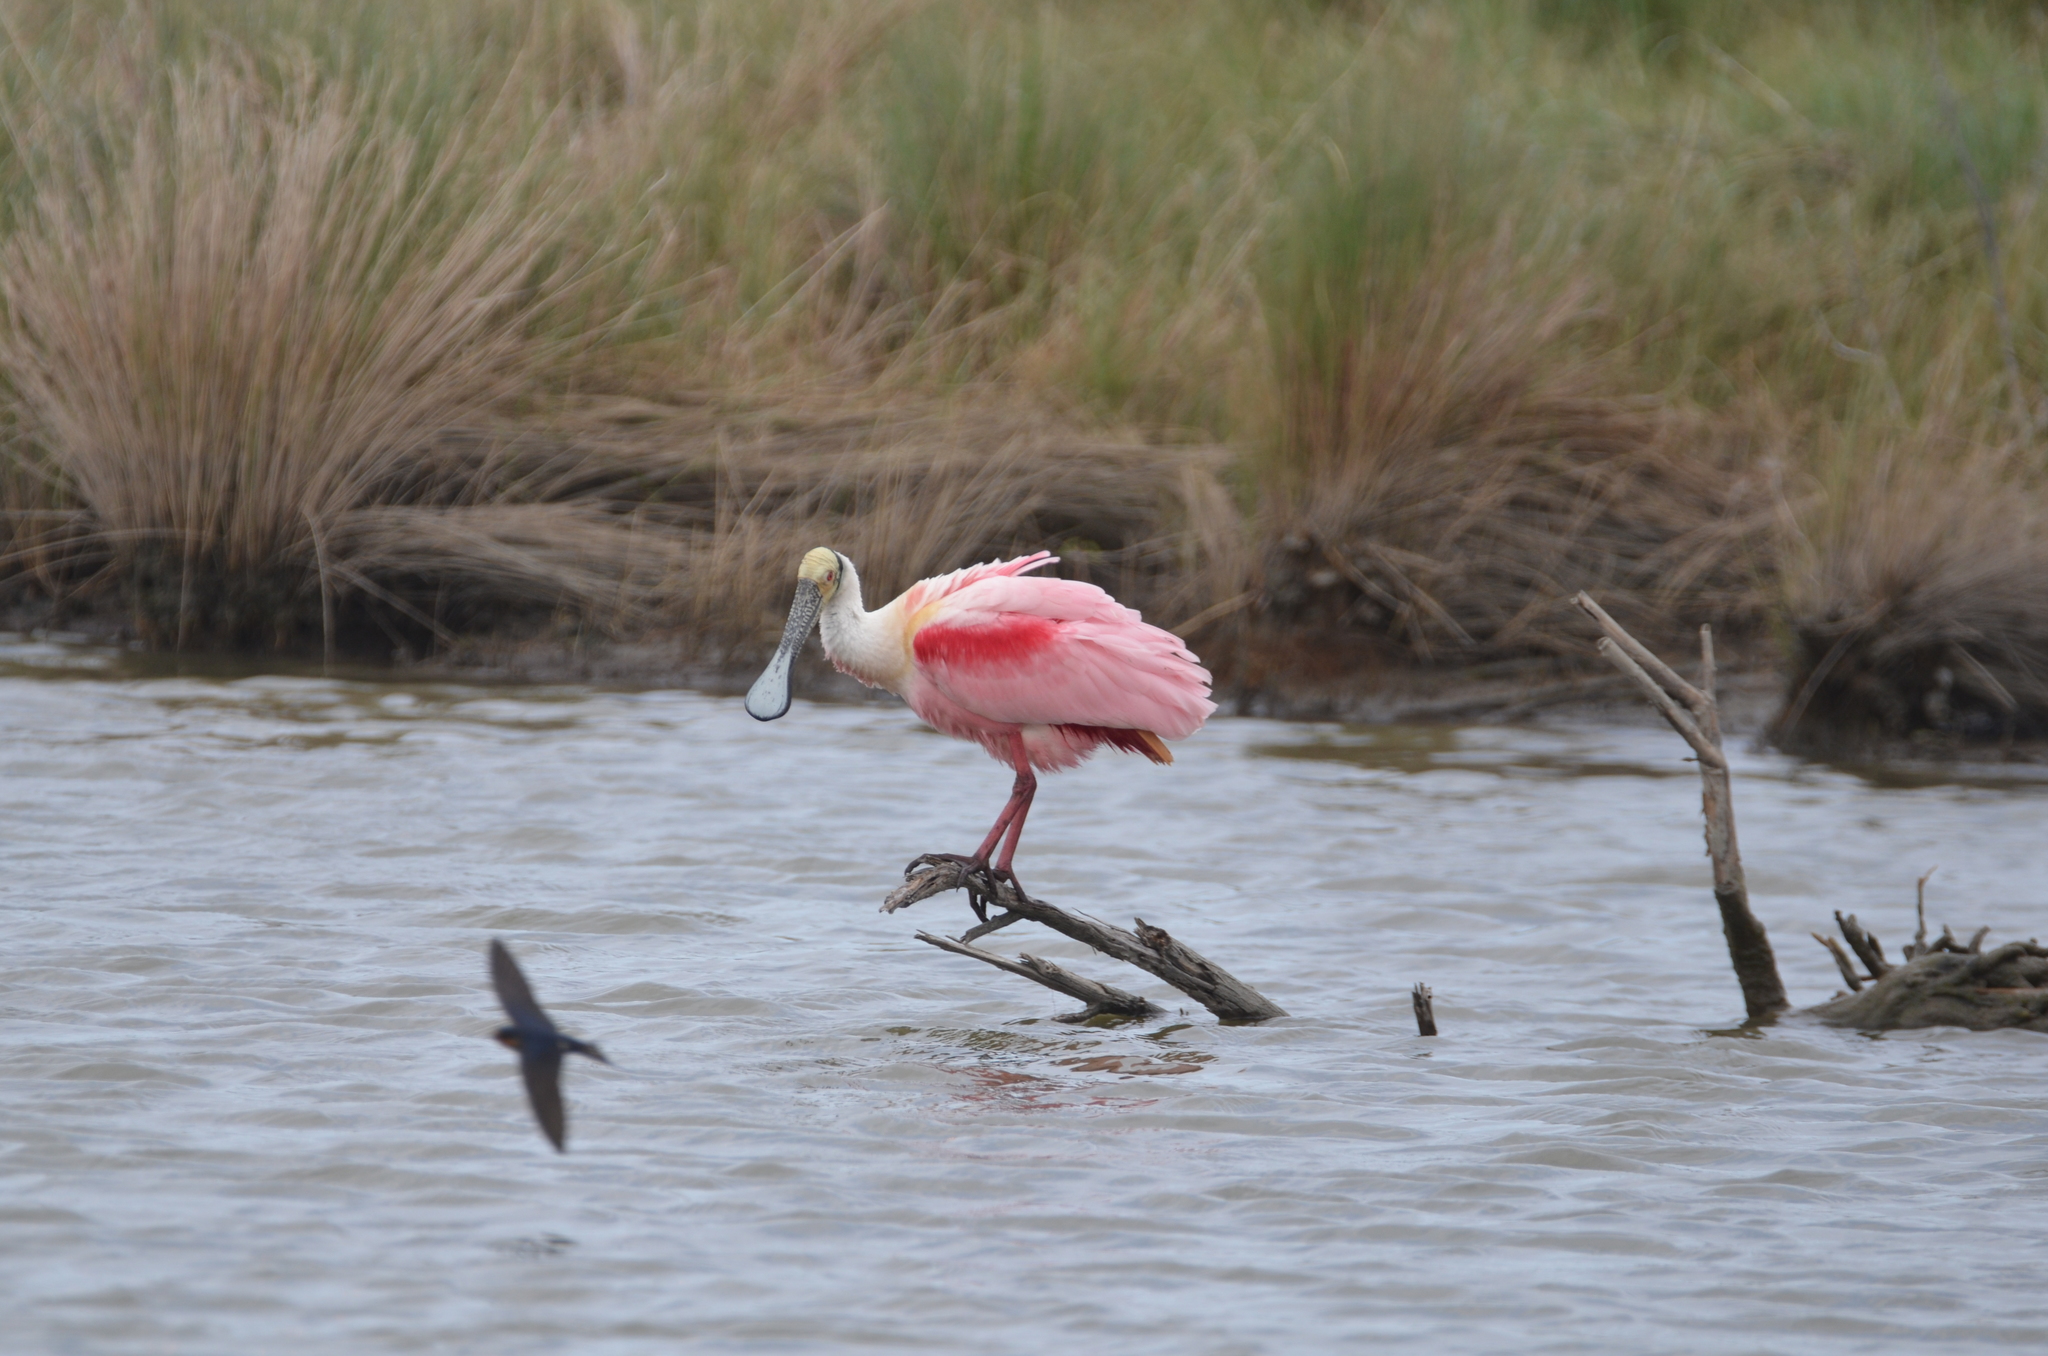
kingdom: Animalia
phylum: Chordata
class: Aves
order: Pelecaniformes
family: Threskiornithidae
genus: Platalea
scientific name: Platalea ajaja
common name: Roseate spoonbill
